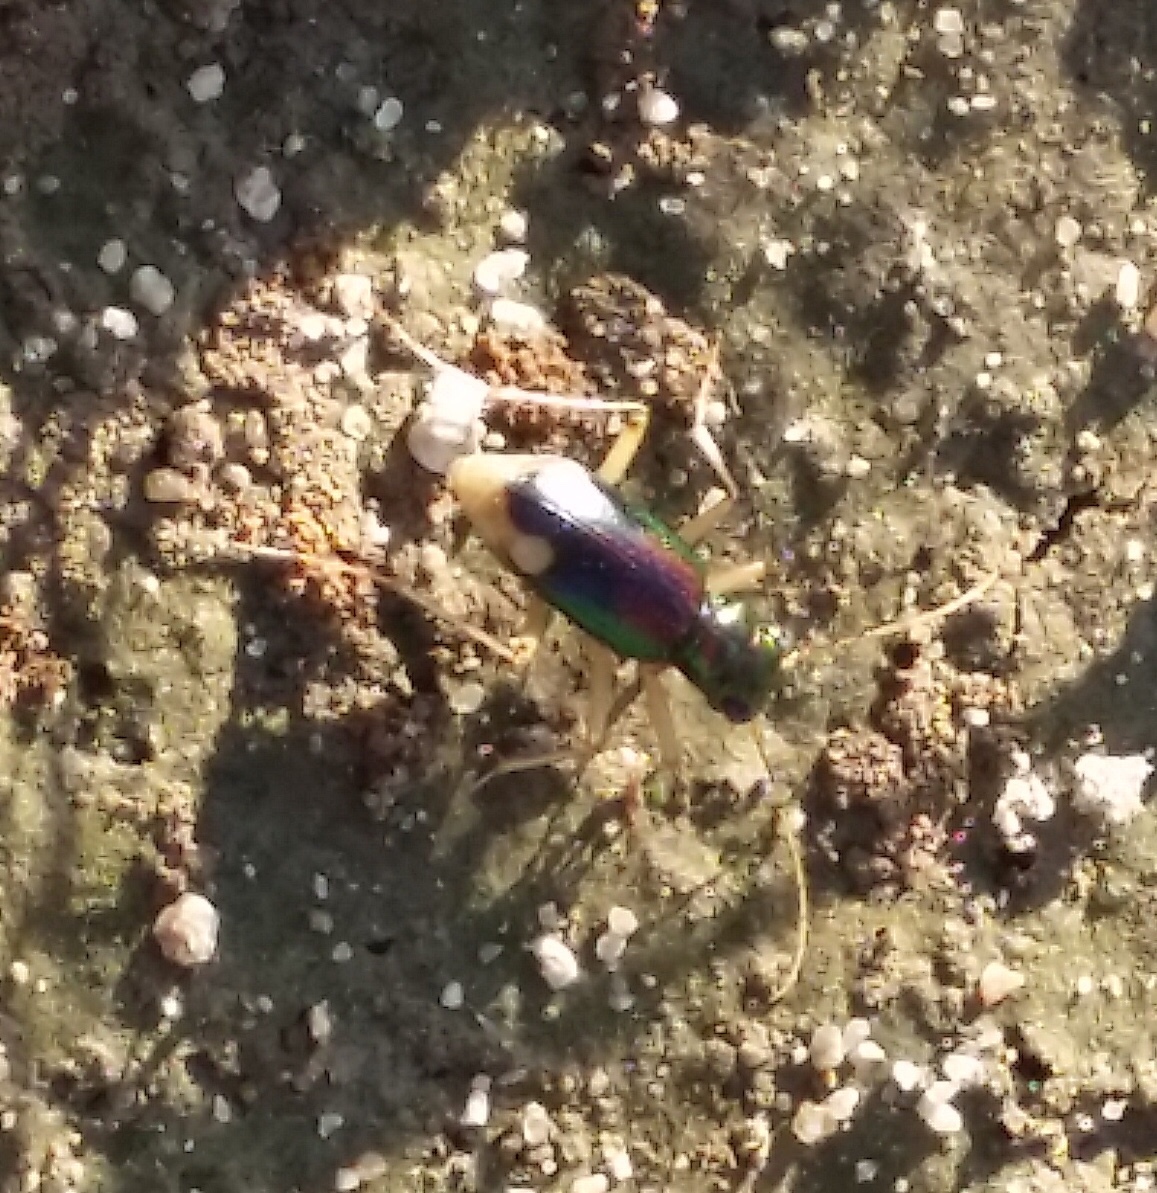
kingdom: Animalia
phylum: Arthropoda
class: Insecta
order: Coleoptera
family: Carabidae
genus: Tetracha
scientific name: Tetracha carolina
